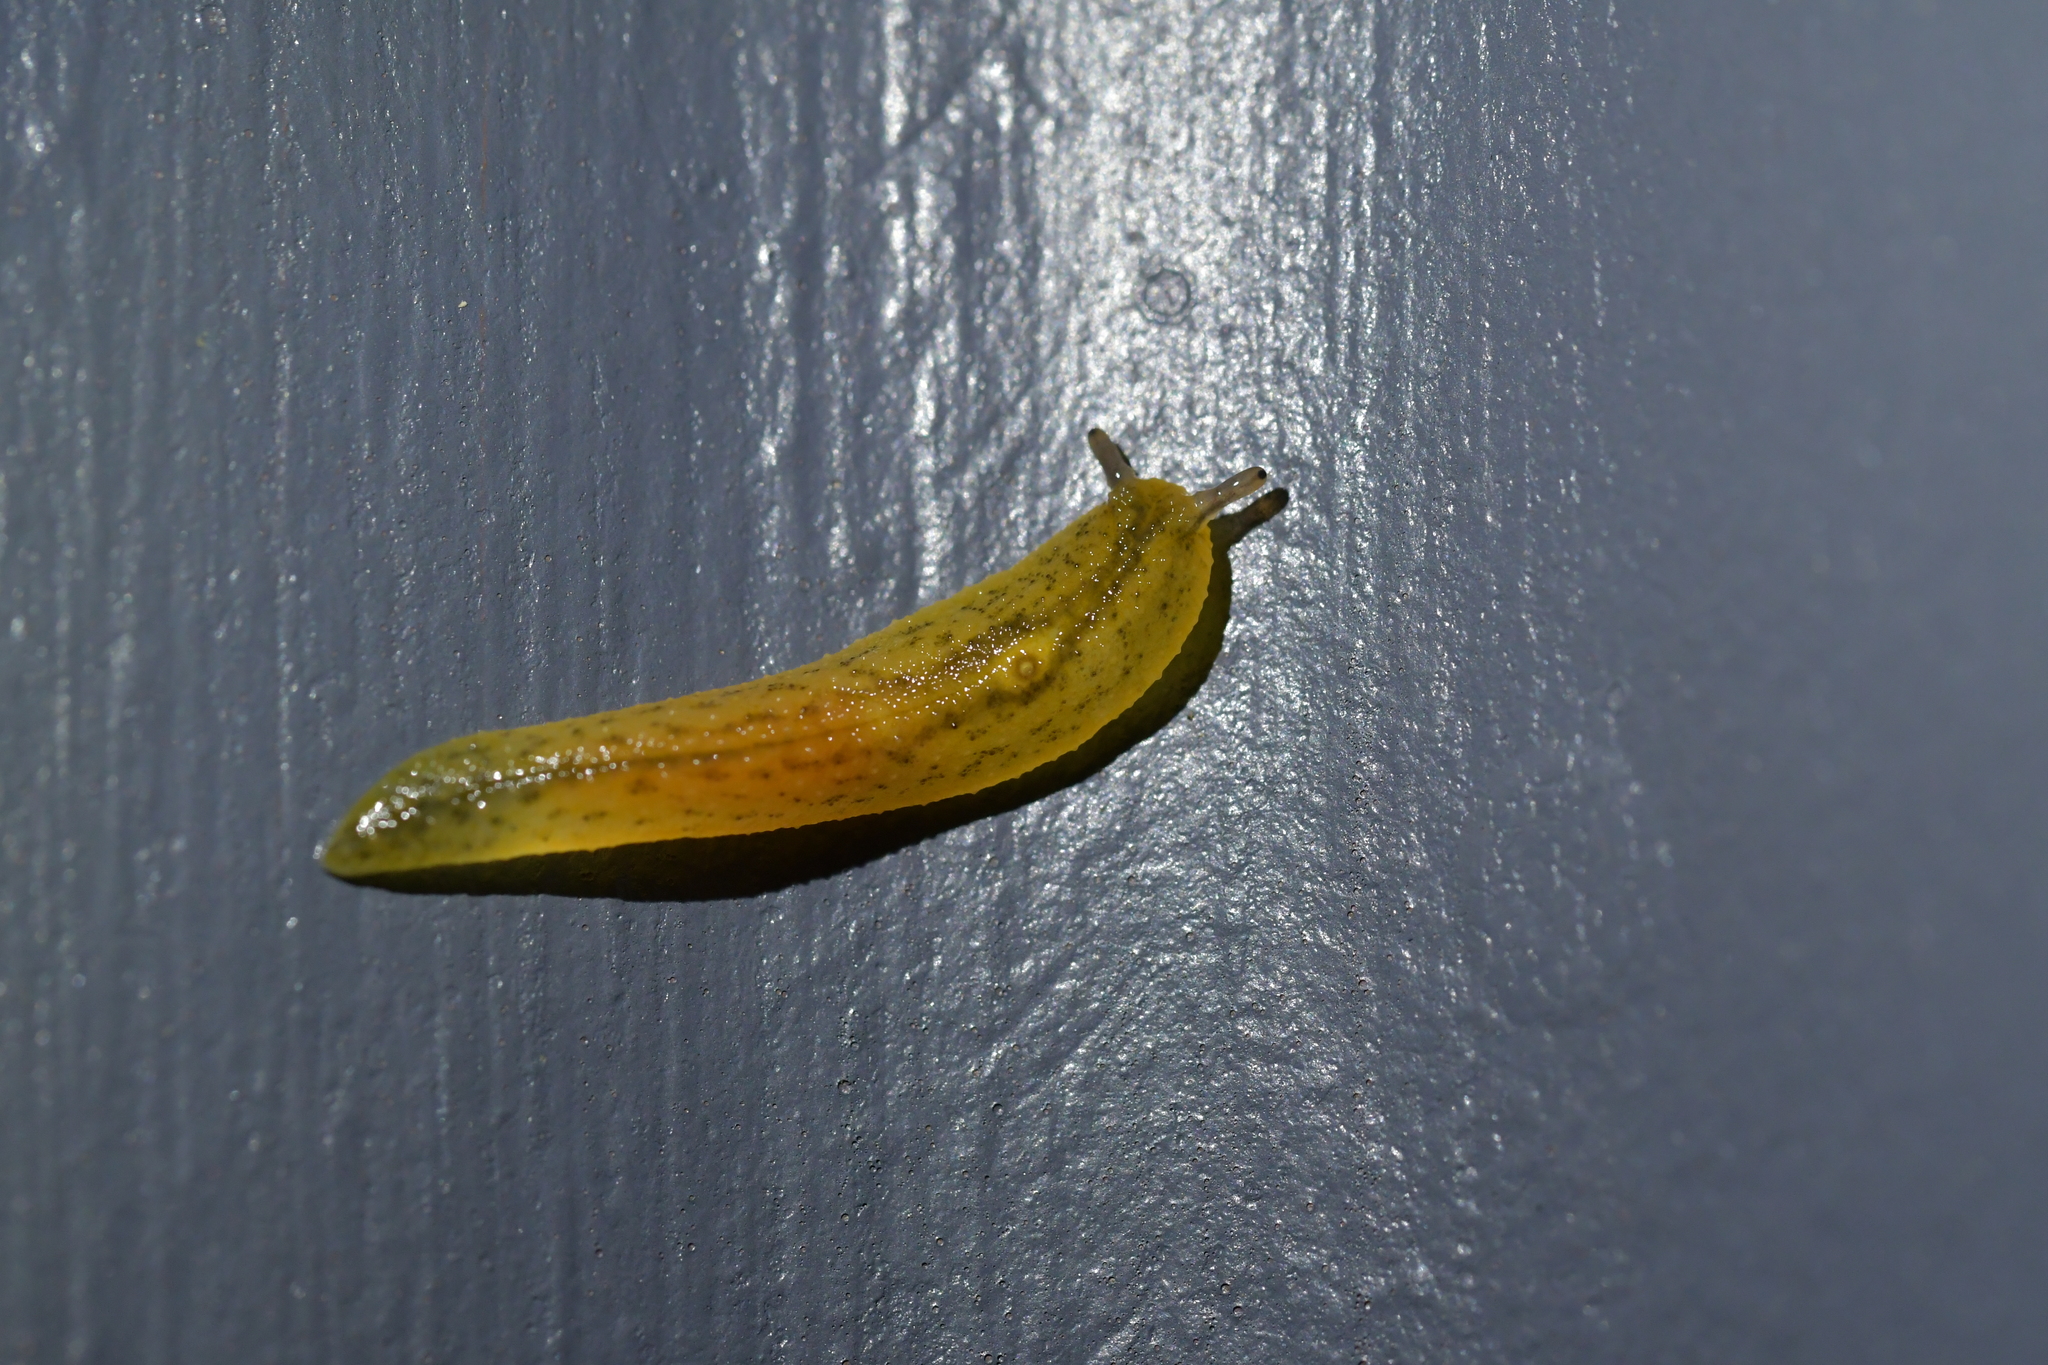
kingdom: Animalia
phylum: Mollusca
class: Gastropoda
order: Stylommatophora
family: Athoracophoridae
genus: Athoracophorus
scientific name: Athoracophorus bitentaculatus
